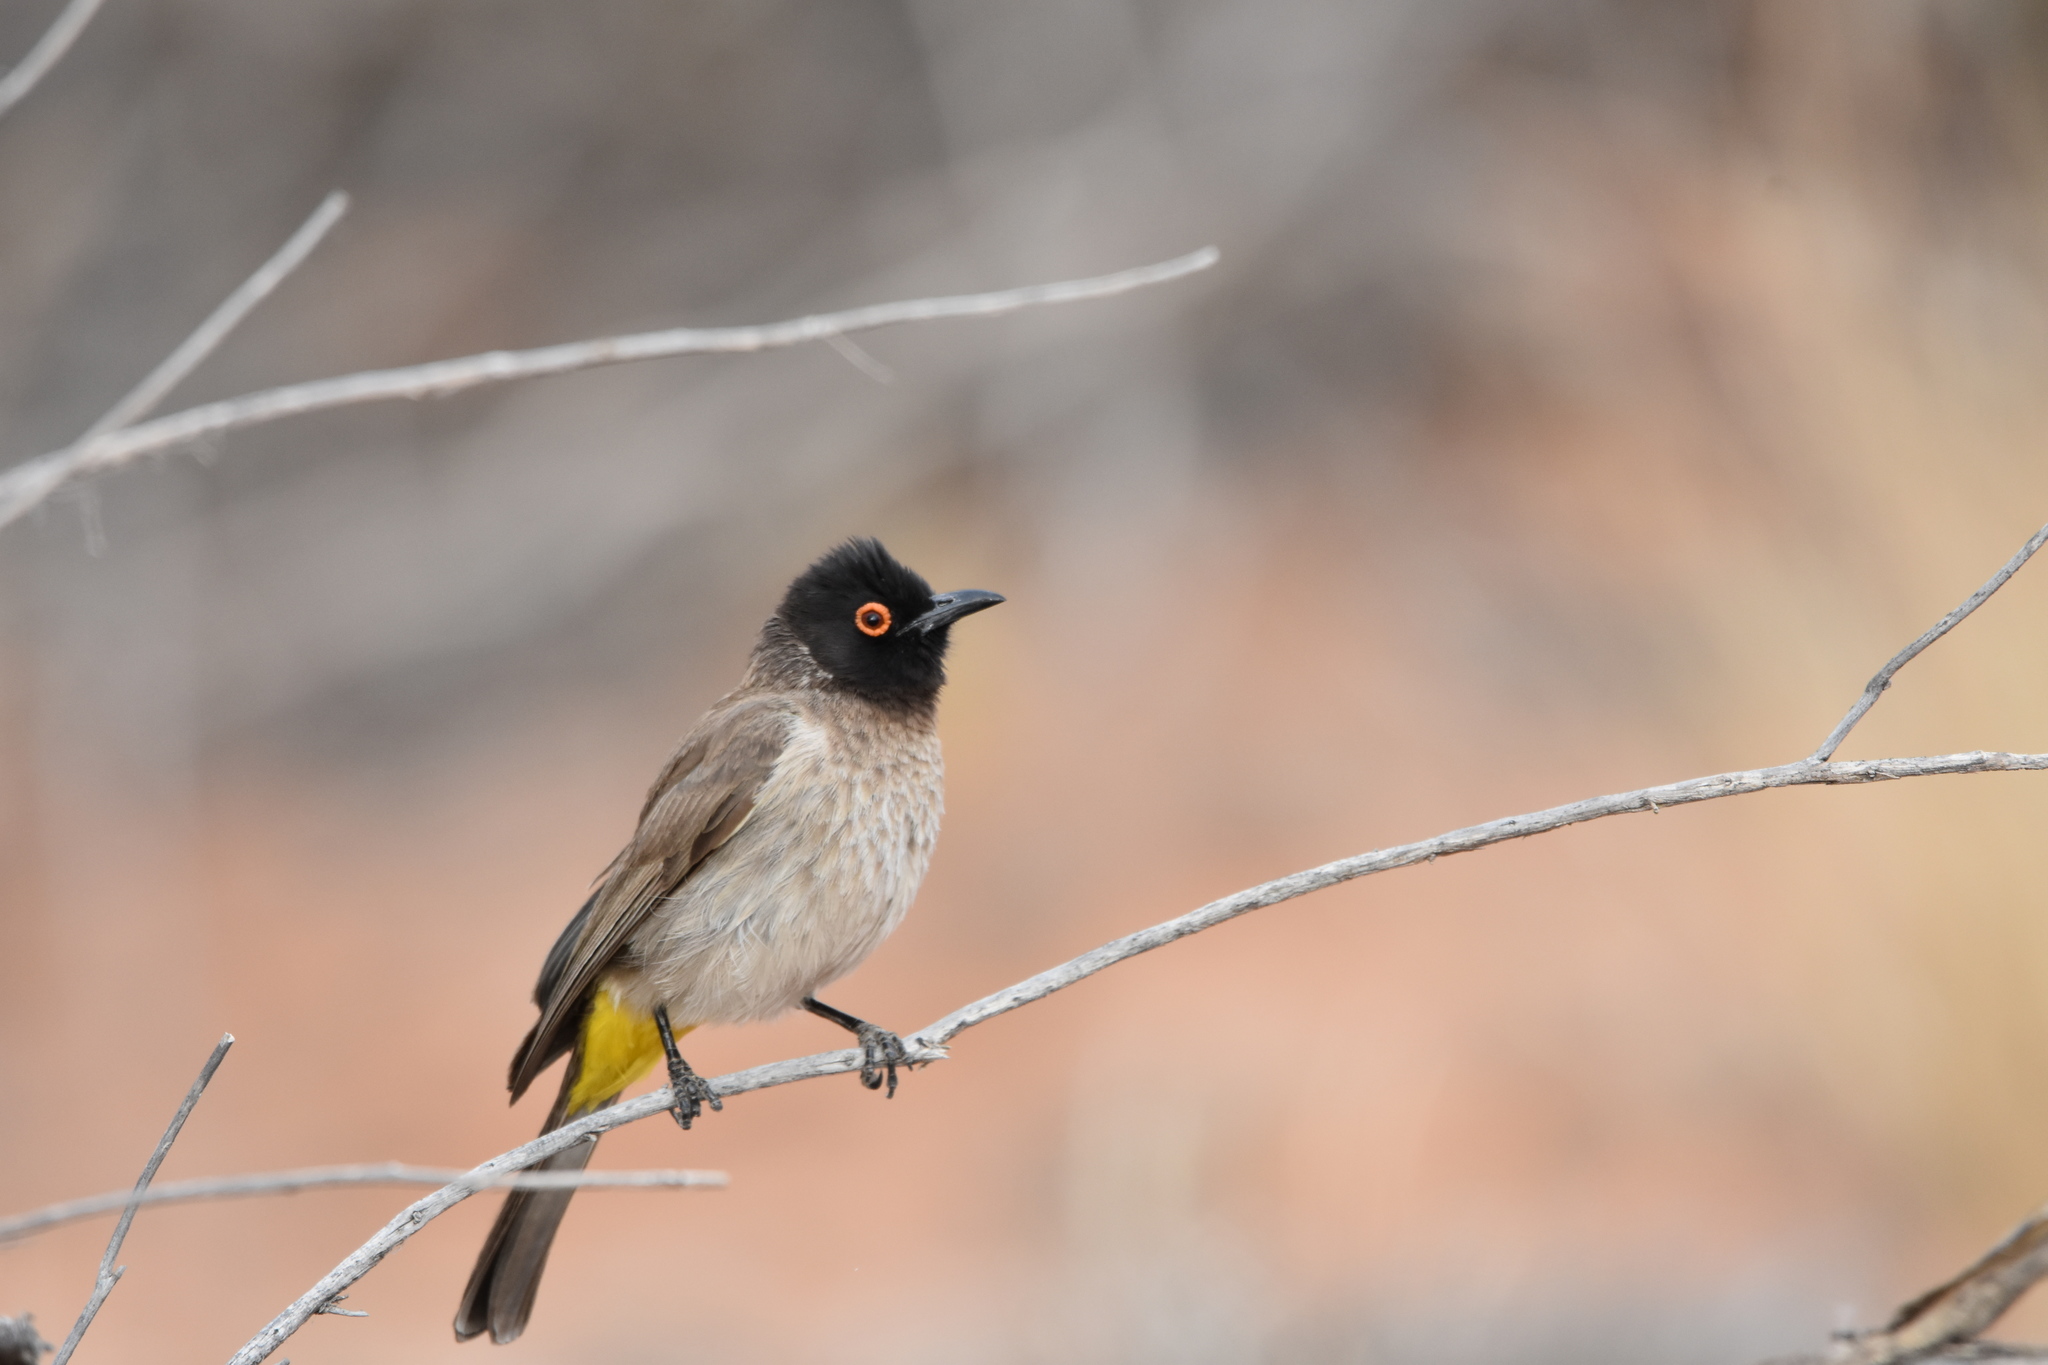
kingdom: Animalia
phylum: Chordata
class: Aves
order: Passeriformes
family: Pycnonotidae
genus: Pycnonotus
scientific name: Pycnonotus nigricans
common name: African red-eyed bulbul
